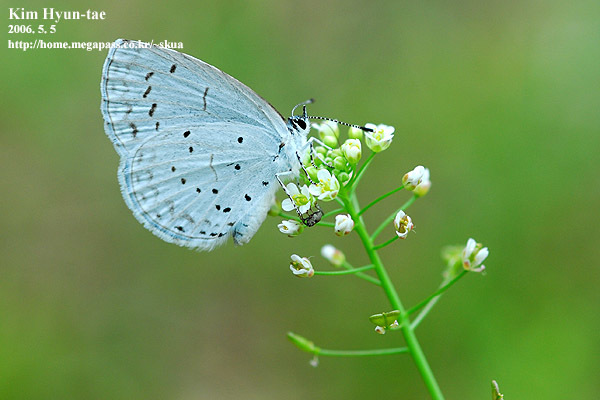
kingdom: Animalia
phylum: Arthropoda
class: Insecta
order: Lepidoptera
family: Lycaenidae
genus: Celastrina
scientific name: Celastrina argiolus
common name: Holly blue
